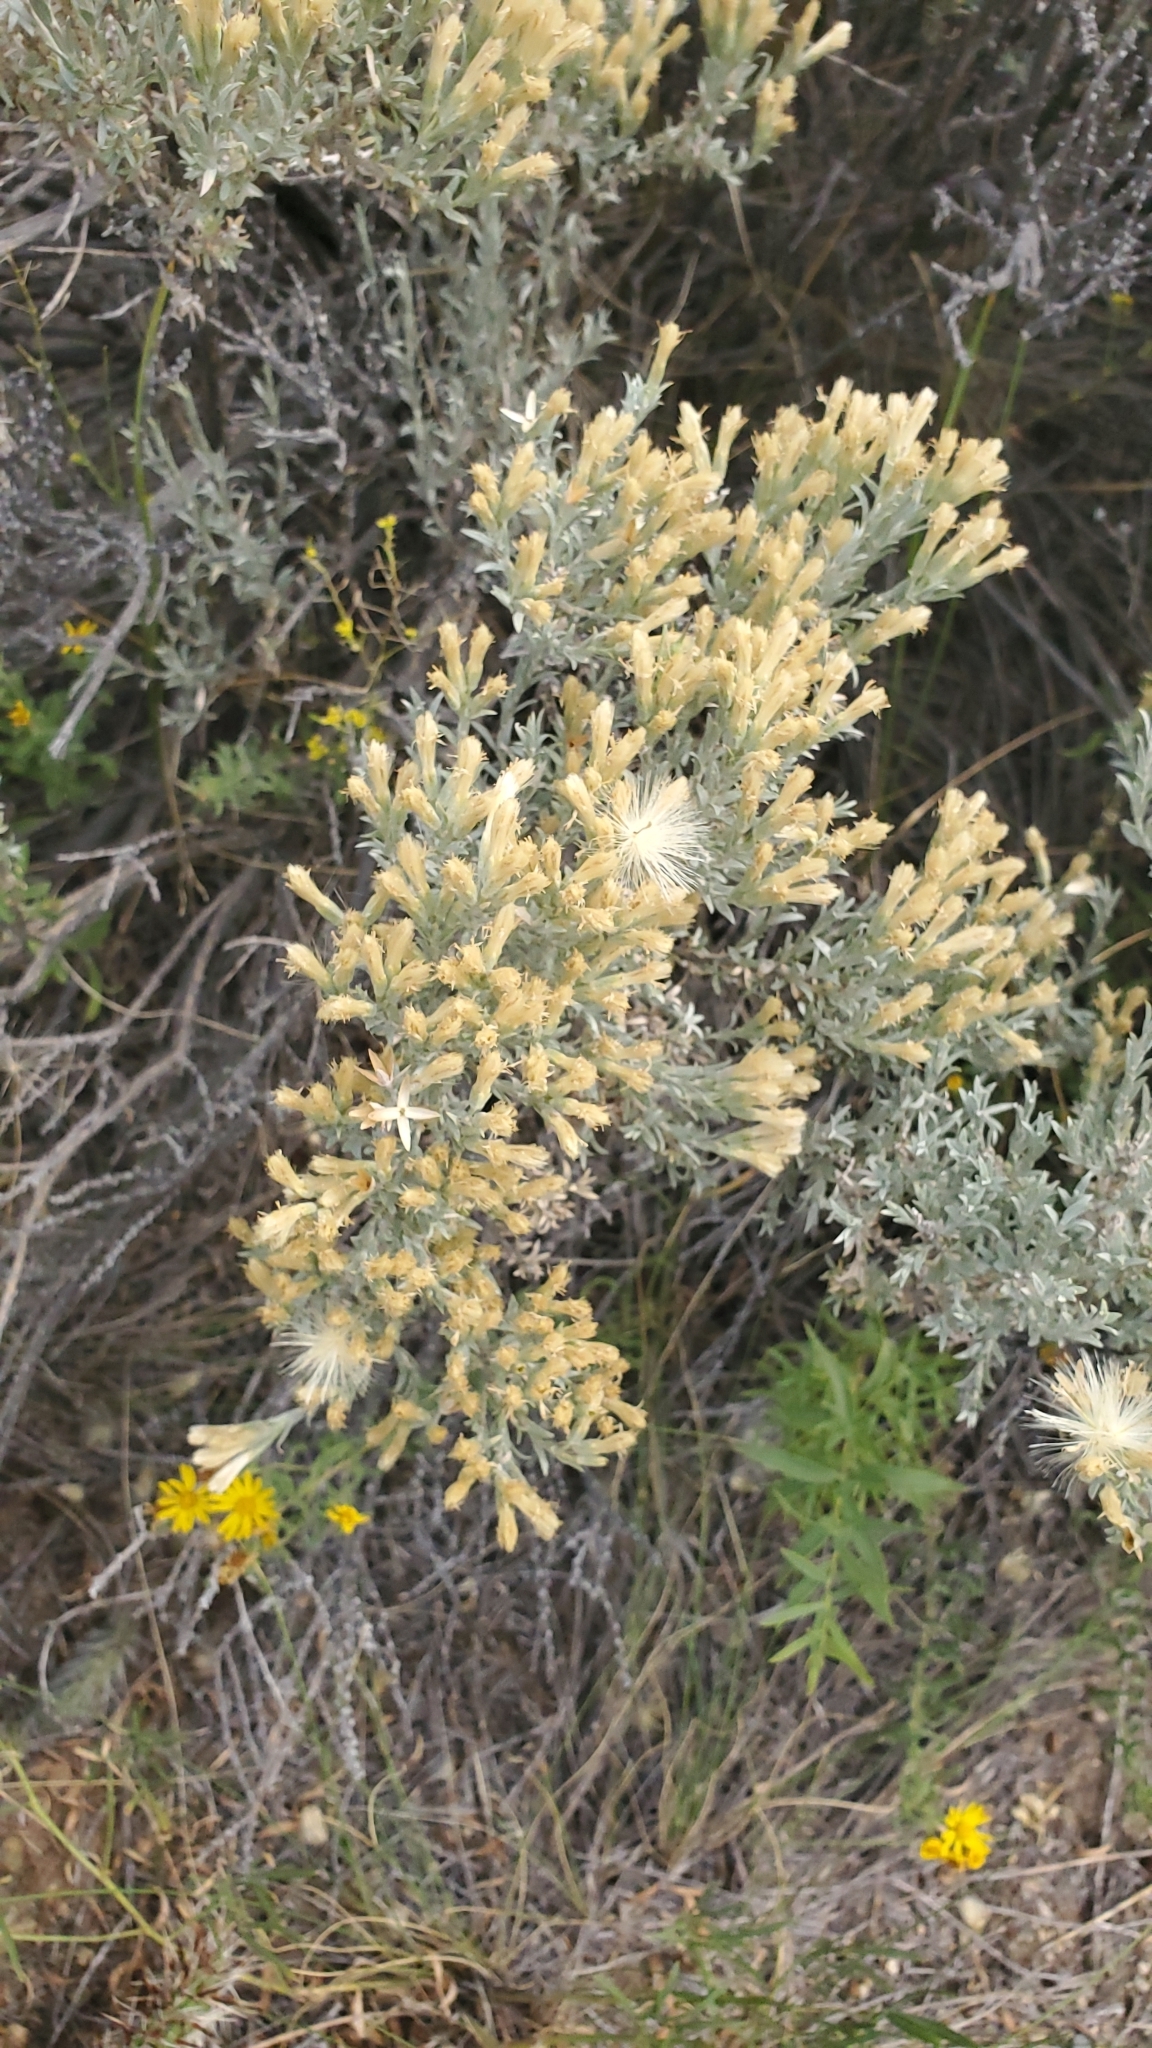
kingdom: Plantae
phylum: Tracheophyta
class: Magnoliopsida
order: Asterales
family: Asteraceae
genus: Tetradymia
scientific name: Tetradymia canescens
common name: Spineless horsebrush
